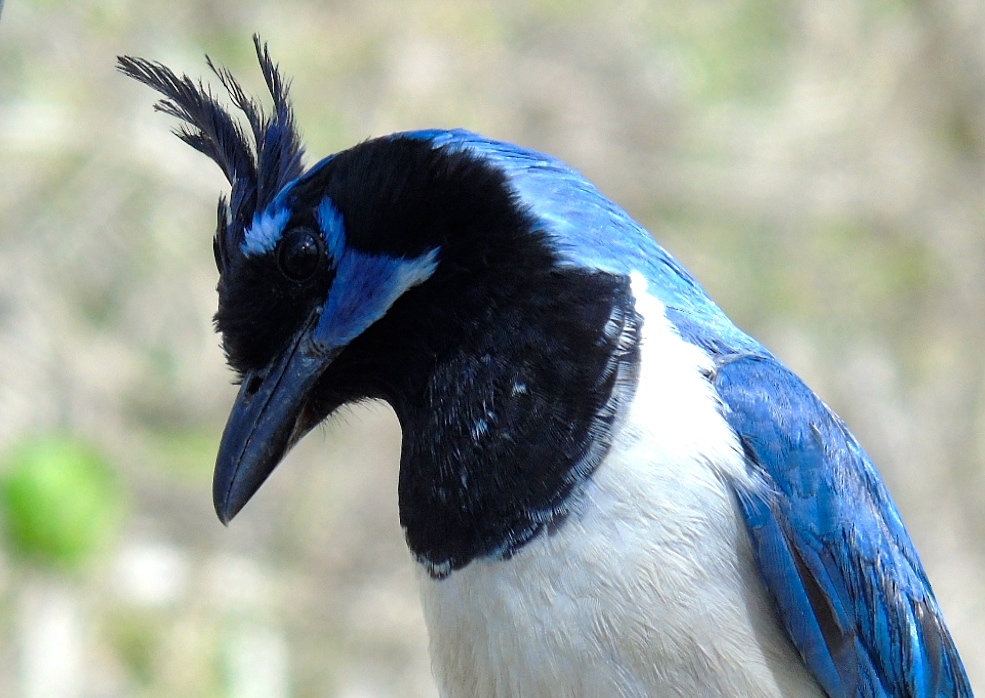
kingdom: Animalia
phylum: Chordata
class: Aves
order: Passeriformes
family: Corvidae
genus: Calocitta
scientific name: Calocitta colliei
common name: Black-throated magpie-jay
